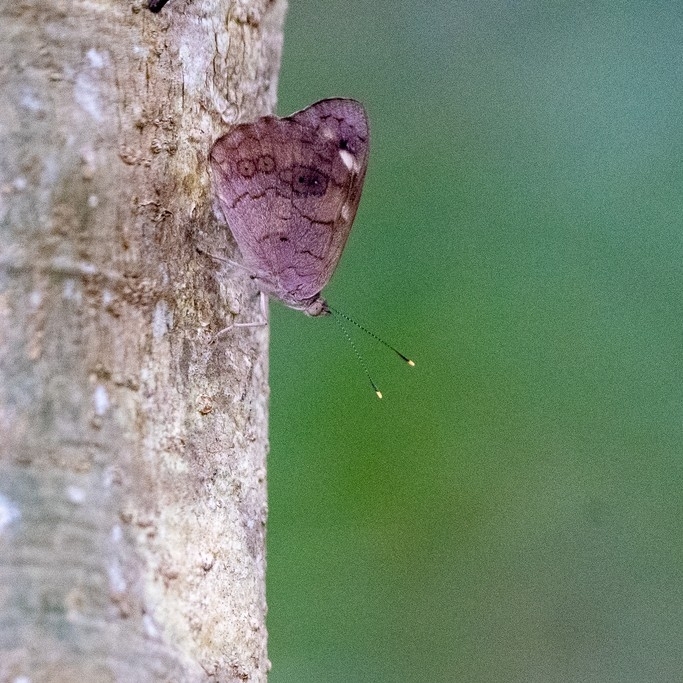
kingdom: Animalia
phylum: Arthropoda
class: Insecta
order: Lepidoptera
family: Nymphalidae
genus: Eunica
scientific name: Eunica monima
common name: Dingy purplewing
